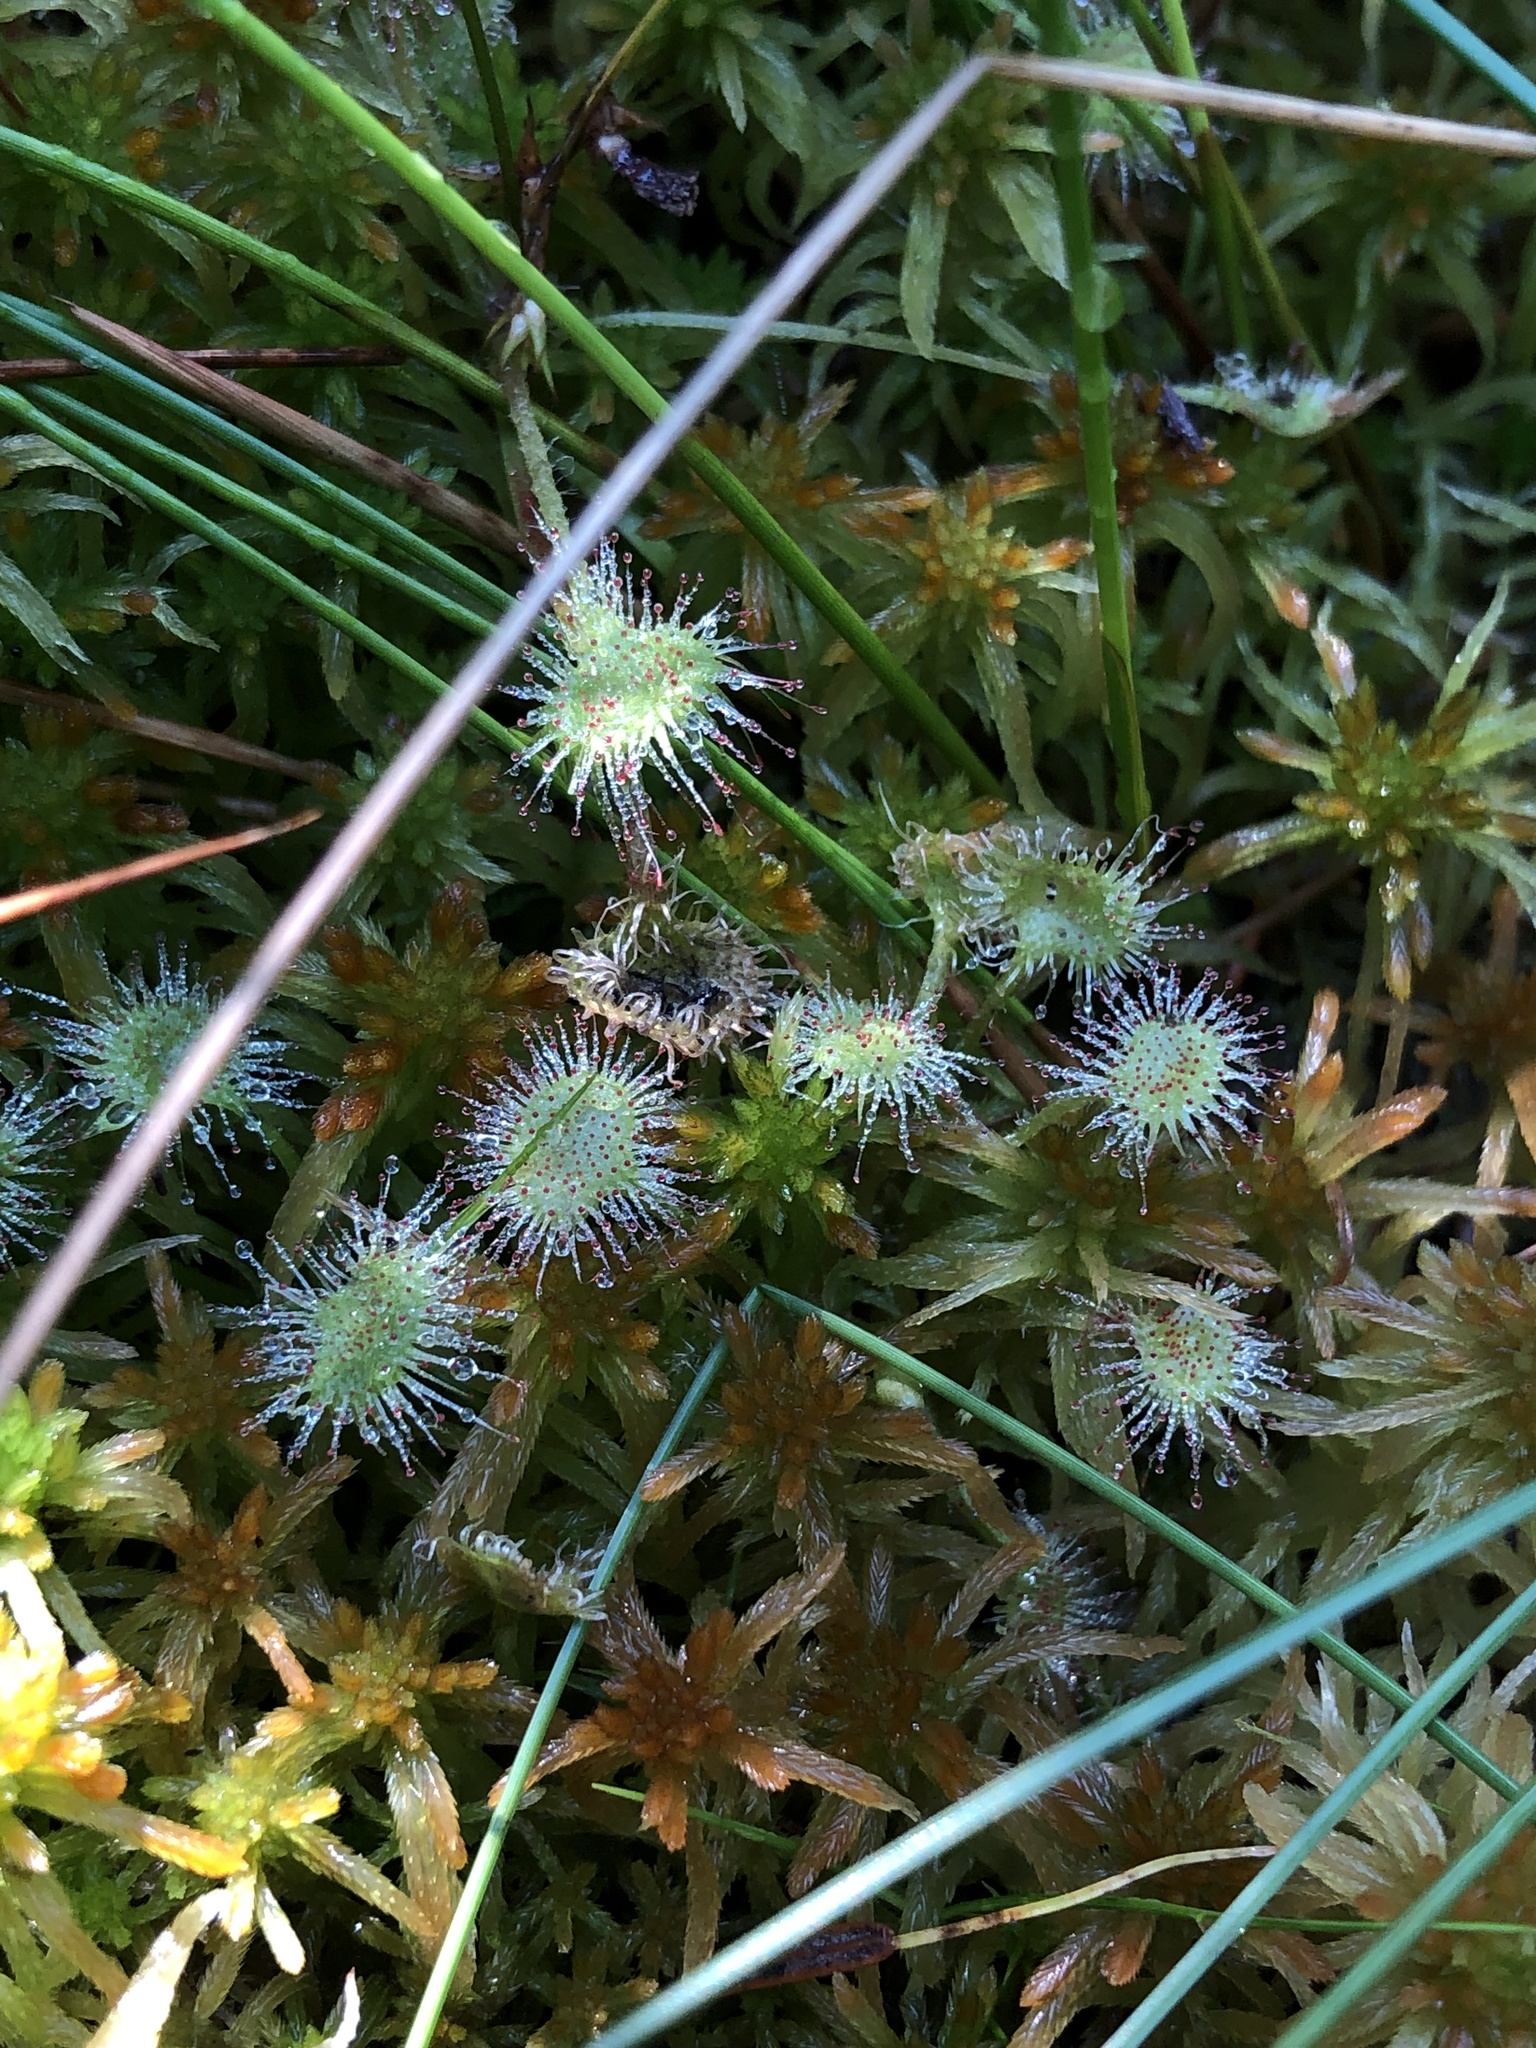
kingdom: Plantae
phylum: Tracheophyta
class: Magnoliopsida
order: Caryophyllales
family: Droseraceae
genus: Drosera
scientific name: Drosera rotundifolia
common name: Round-leaved sundew
